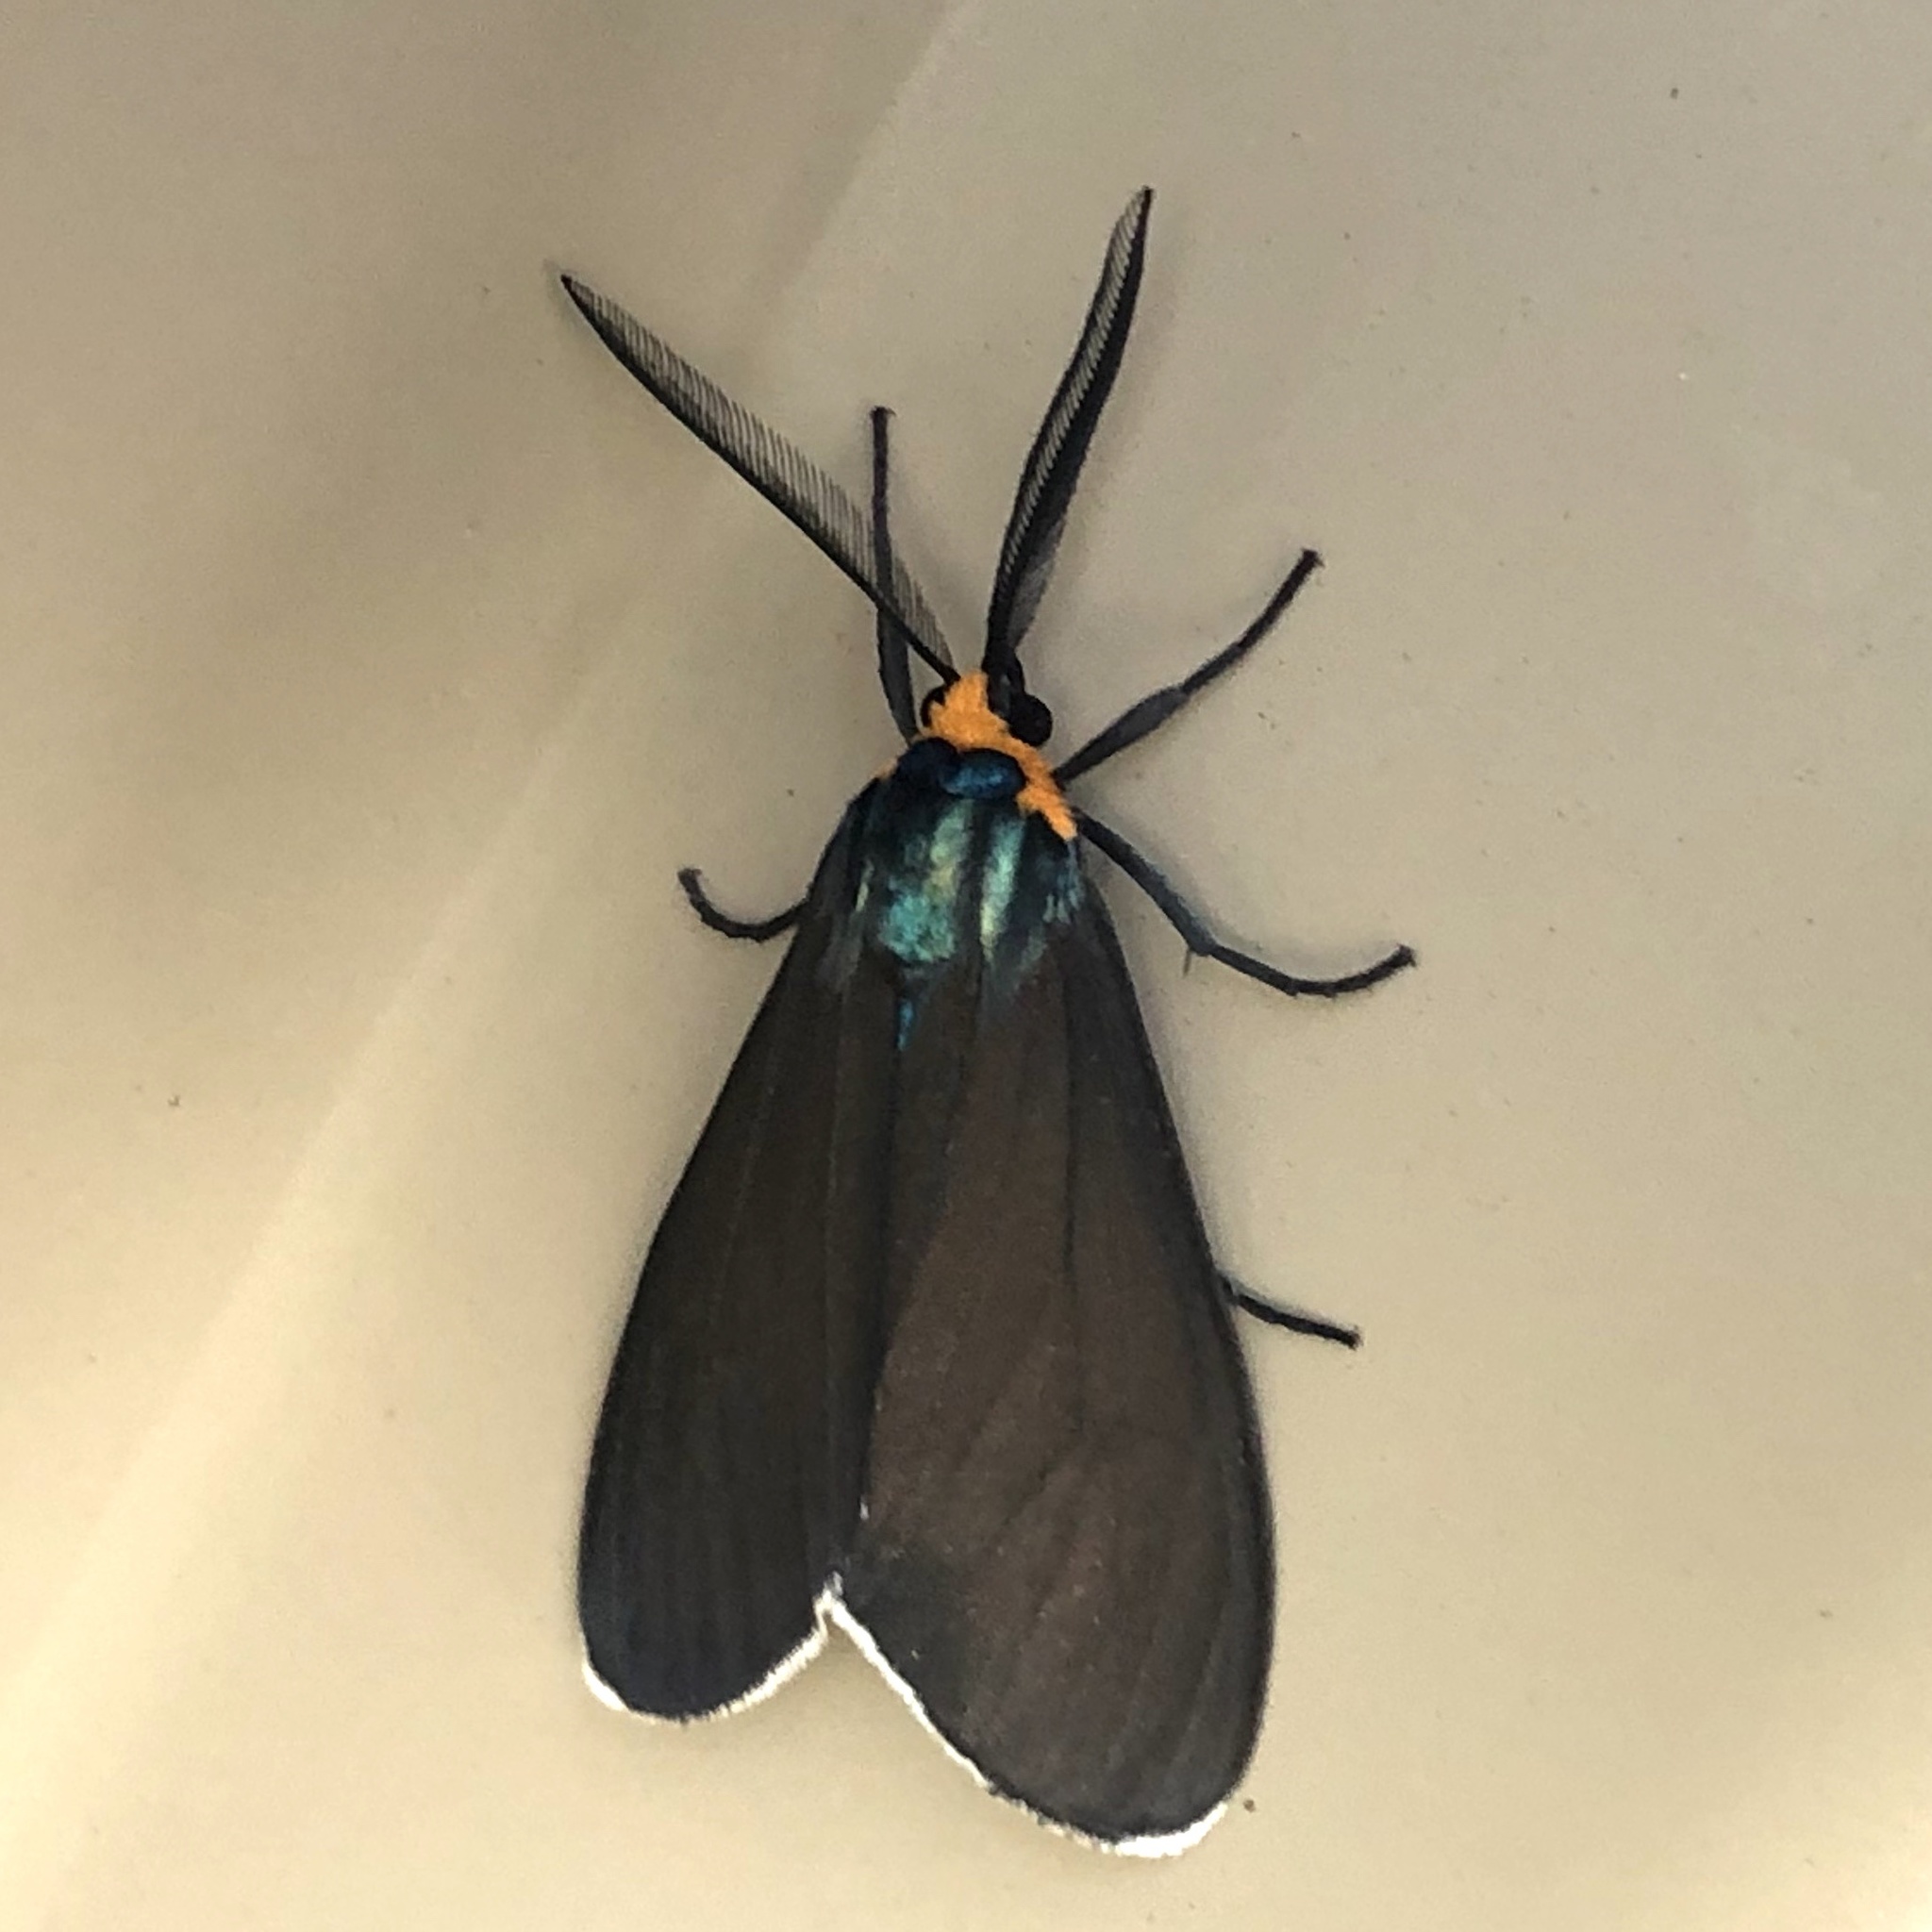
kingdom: Animalia
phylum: Arthropoda
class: Insecta
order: Lepidoptera
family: Erebidae
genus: Ctenucha
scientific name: Ctenucha virginica
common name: Virginia ctenucha moth
